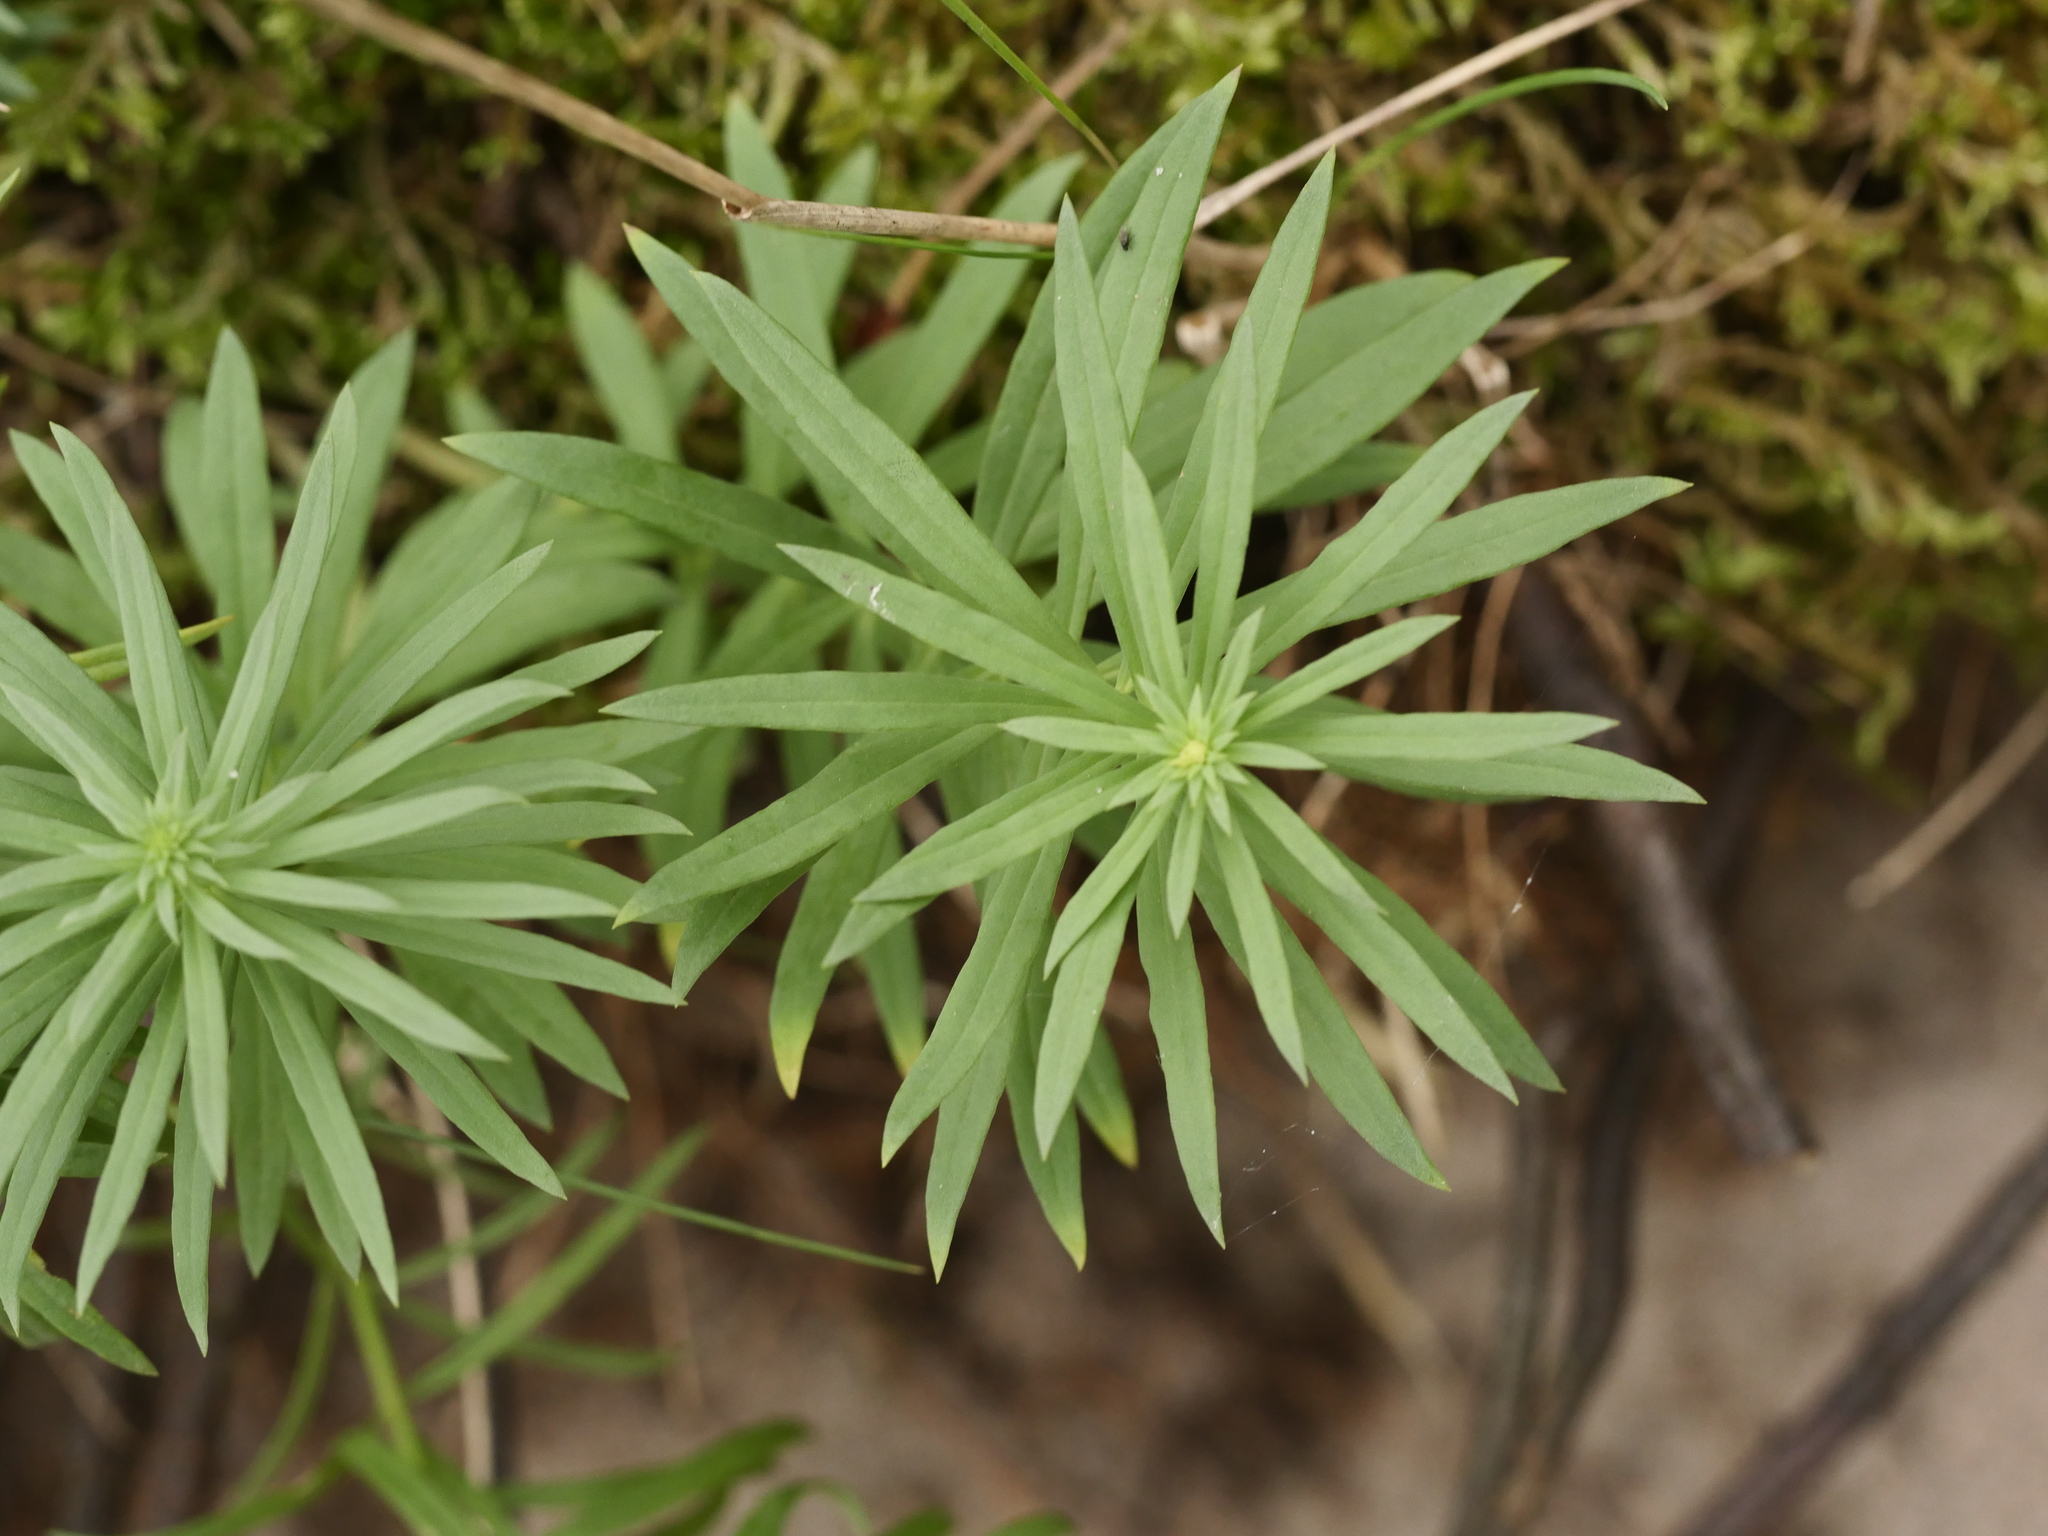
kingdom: Plantae
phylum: Tracheophyta
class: Magnoliopsida
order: Lamiales
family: Plantaginaceae
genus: Linaria
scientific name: Linaria vulgaris
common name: Butter and eggs
